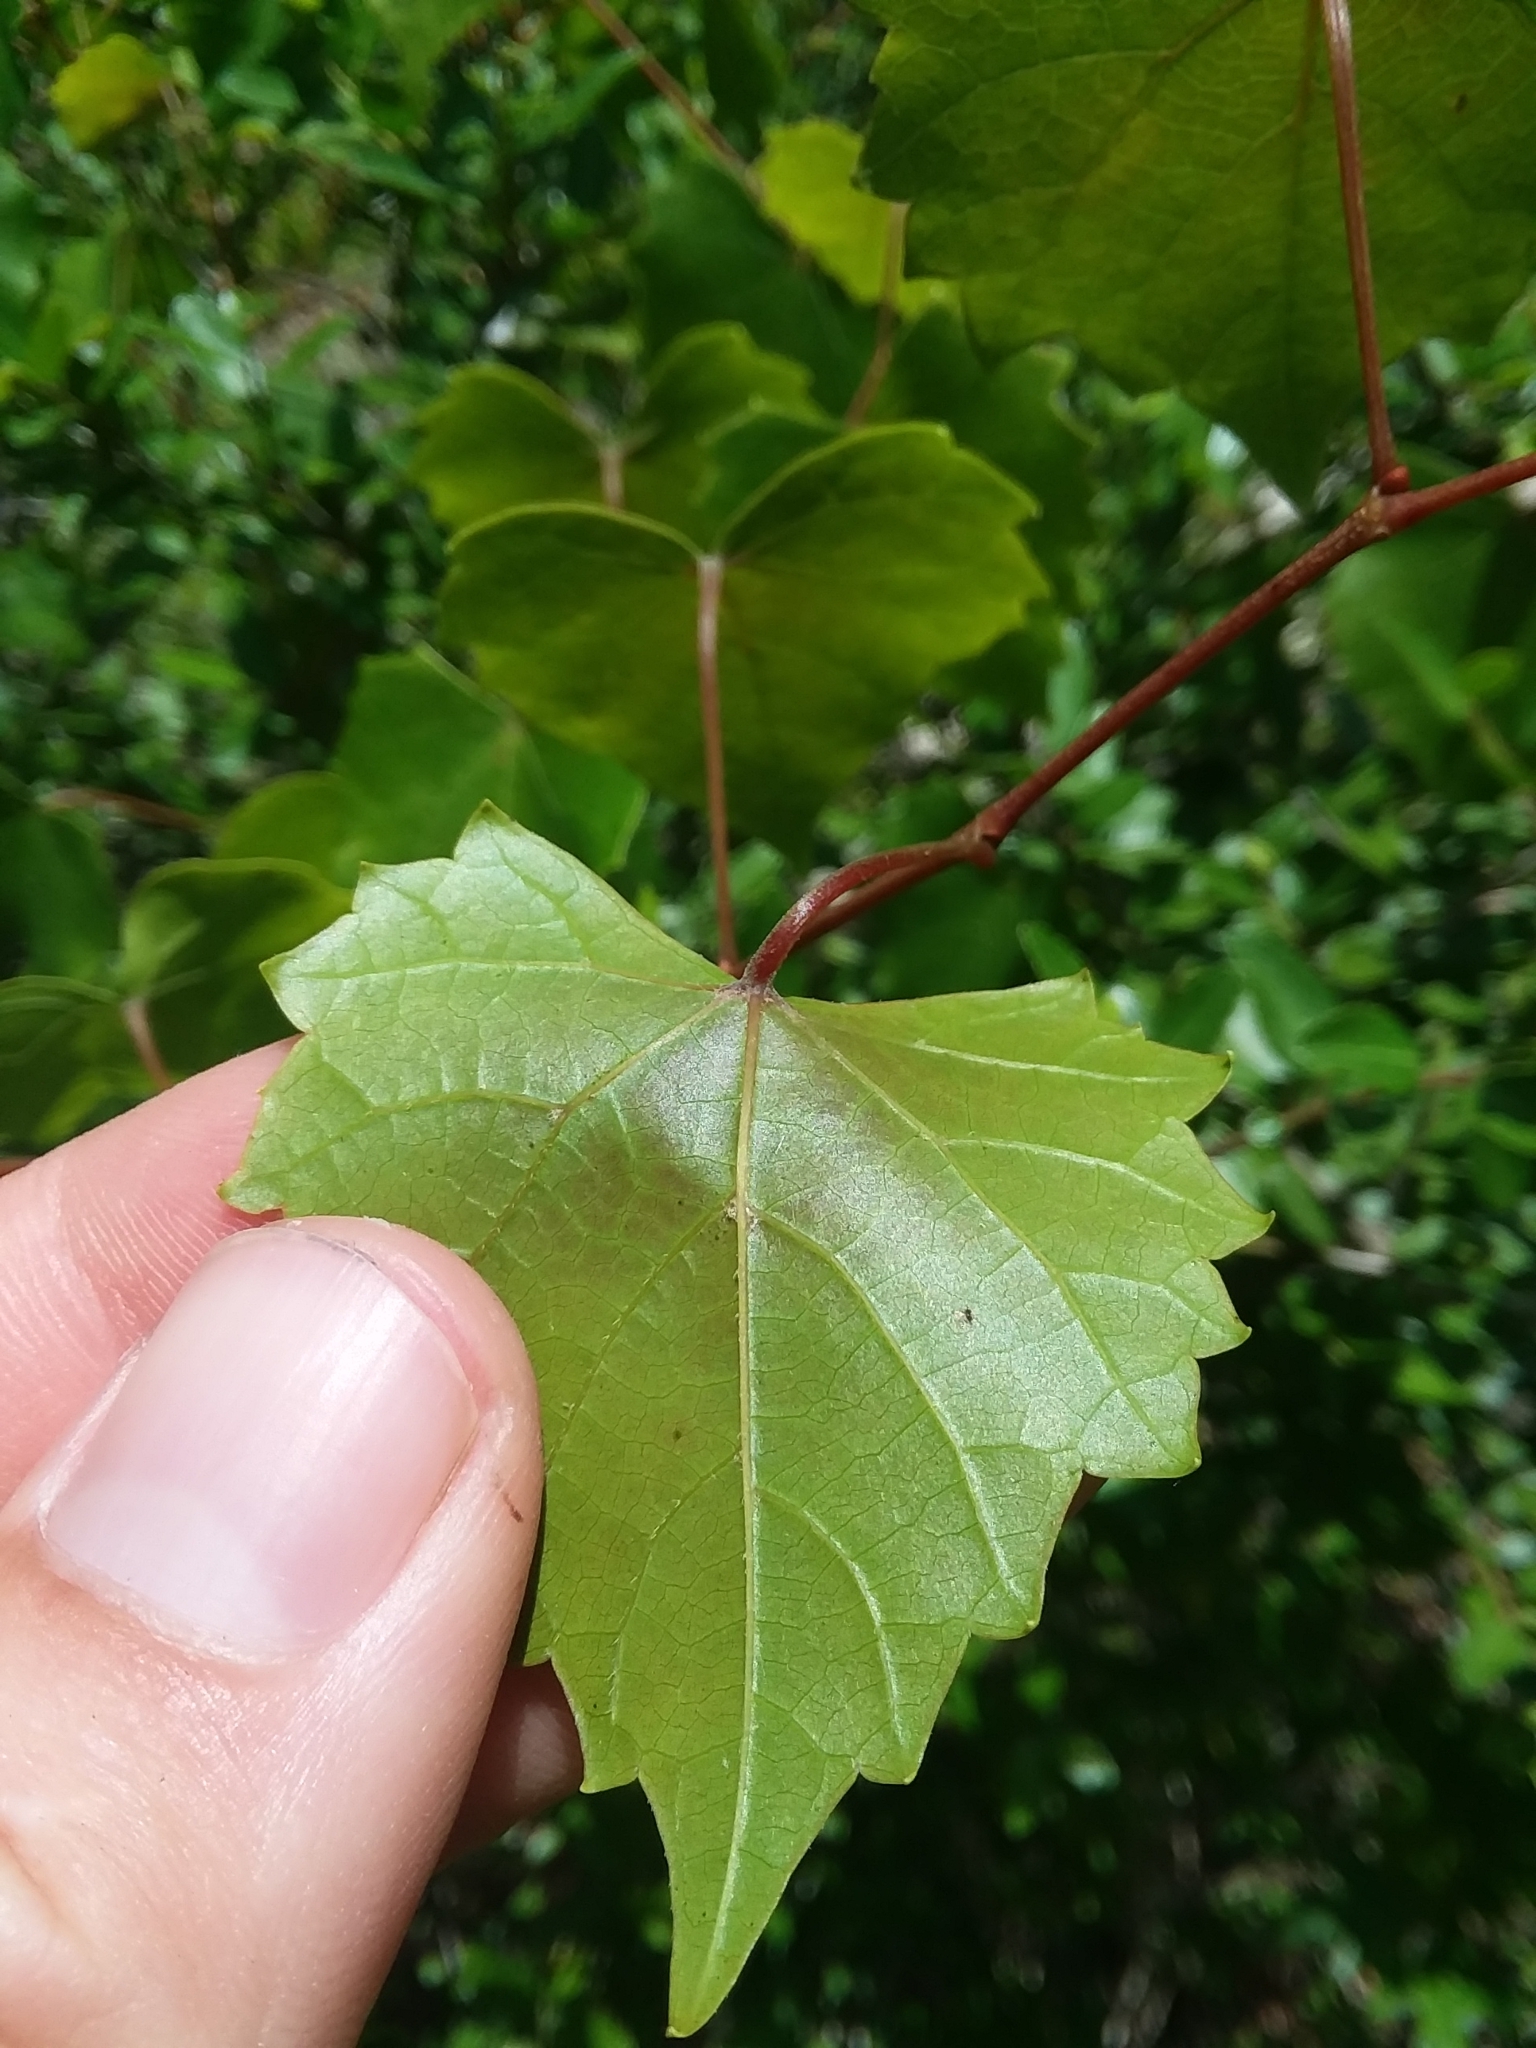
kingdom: Plantae
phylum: Tracheophyta
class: Magnoliopsida
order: Vitales
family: Vitaceae
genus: Vitis
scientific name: Vitis rotundifolia
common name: Muscadine grape
